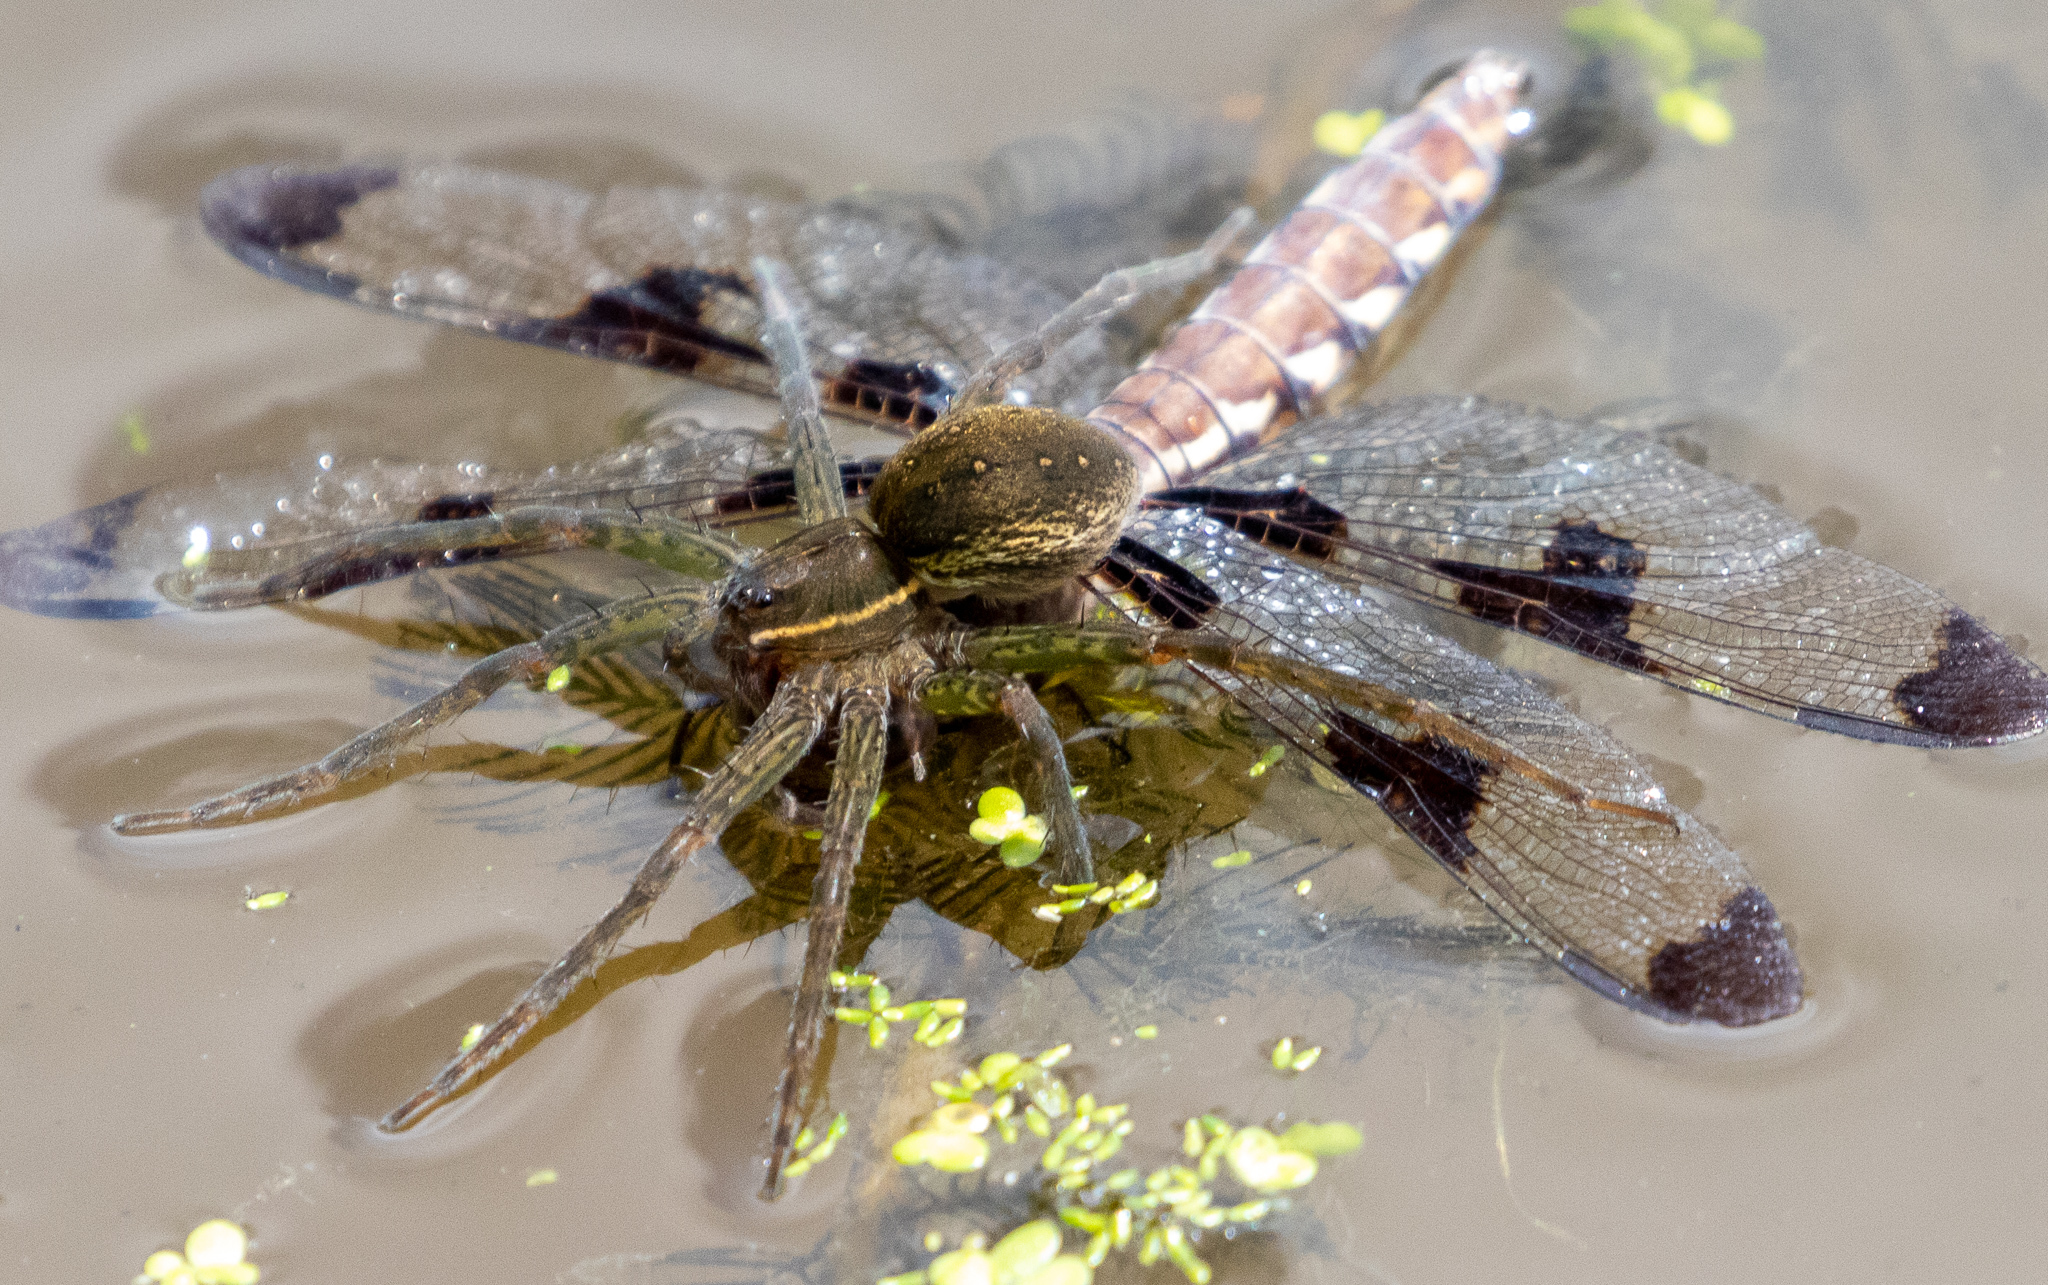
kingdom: Animalia
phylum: Arthropoda
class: Arachnida
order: Araneae
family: Pisauridae
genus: Dolomedes
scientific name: Dolomedes triton
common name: Six-spotted fishing spider
